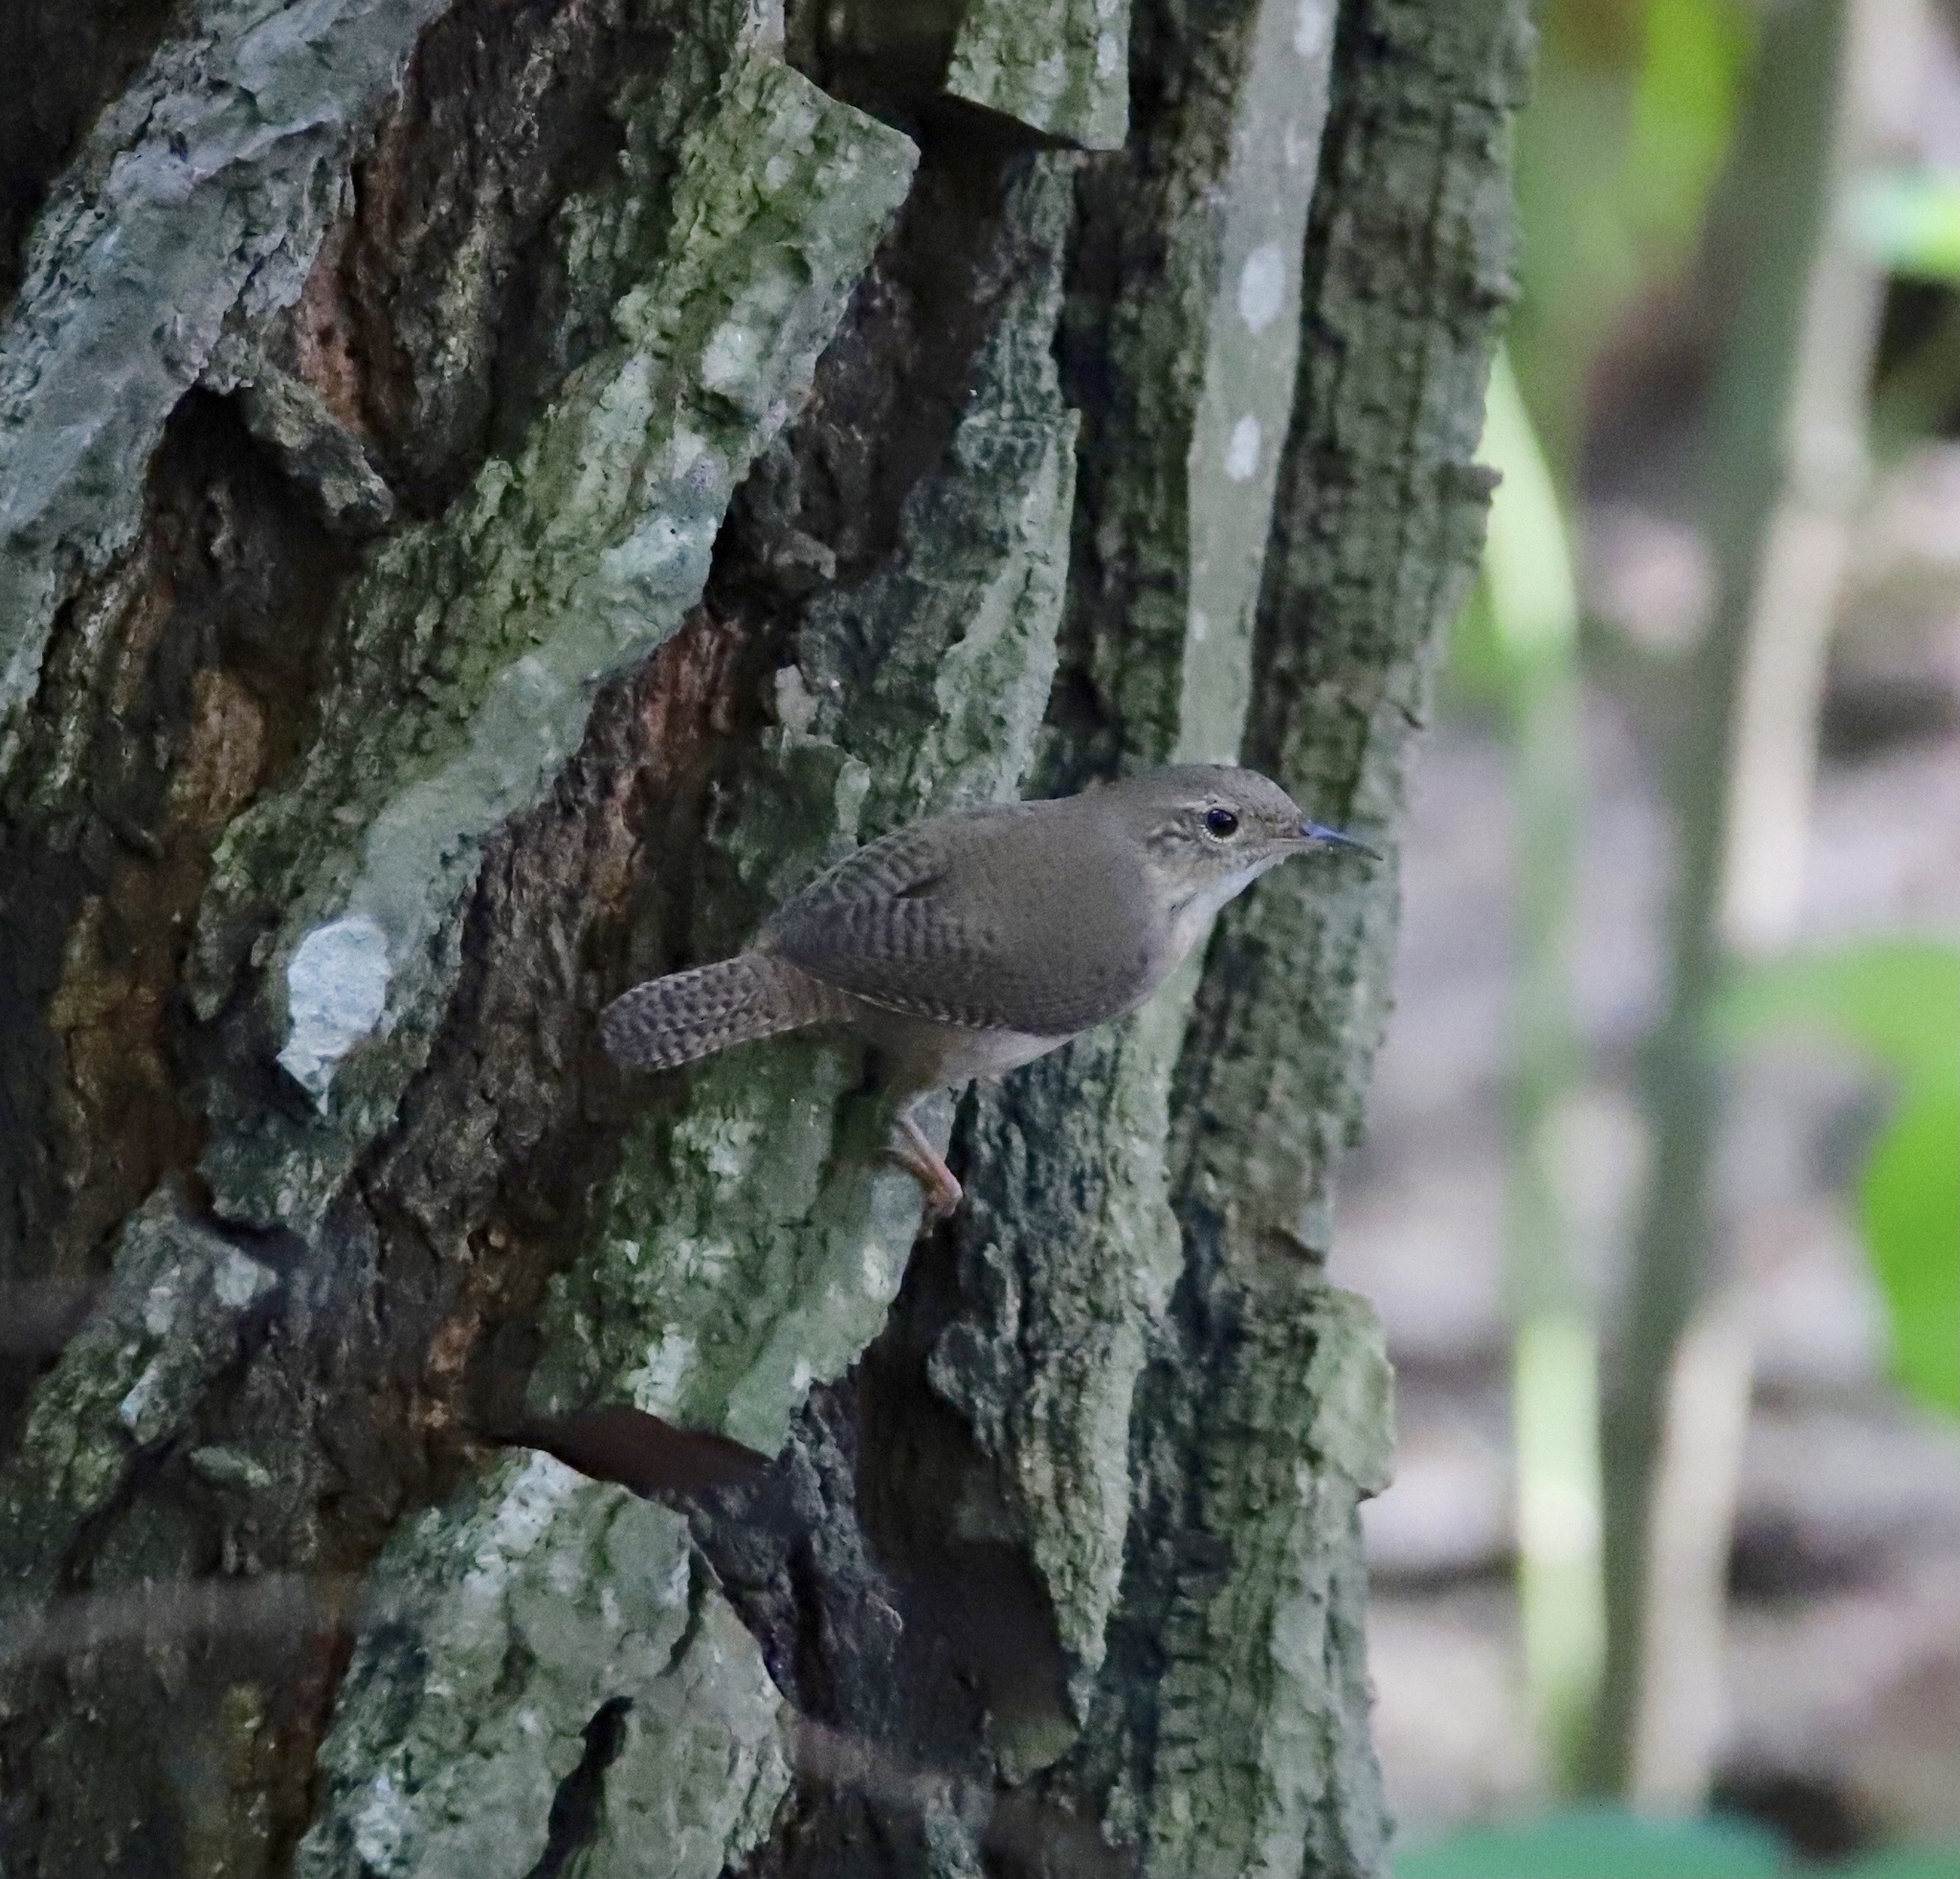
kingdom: Animalia
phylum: Chordata
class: Aves
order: Passeriformes
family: Troglodytidae
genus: Troglodytes
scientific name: Troglodytes aedon
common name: House wren
